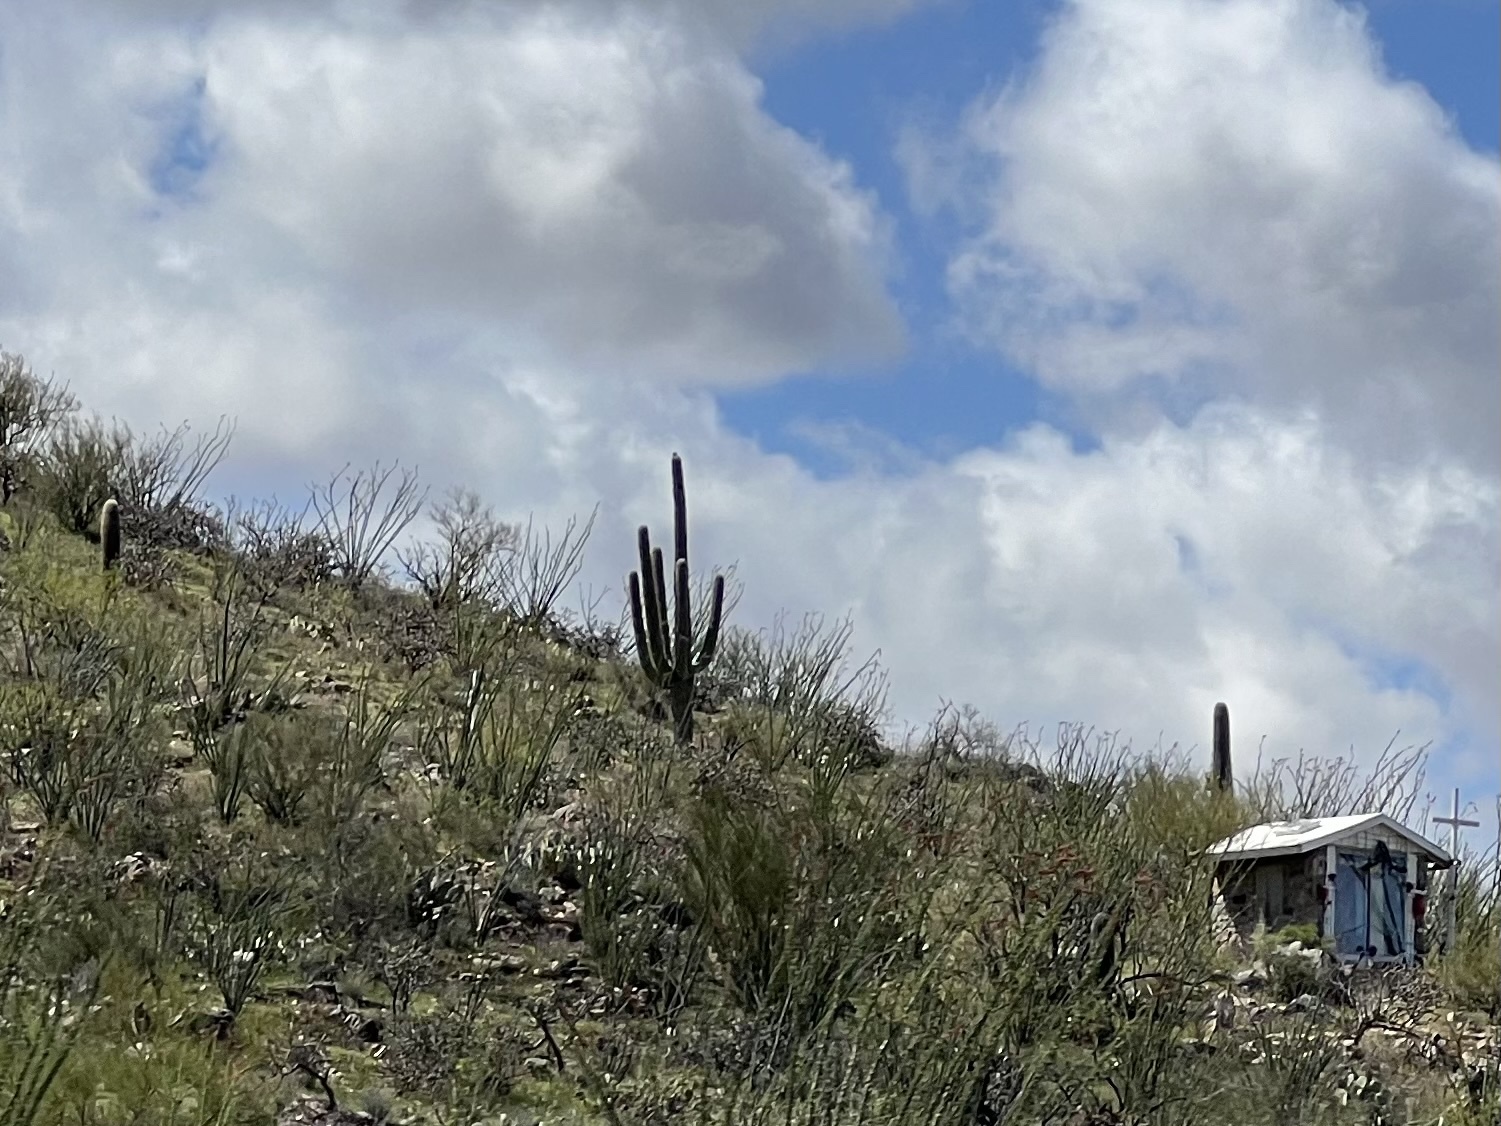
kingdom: Plantae
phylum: Tracheophyta
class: Magnoliopsida
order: Caryophyllales
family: Cactaceae
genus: Carnegiea
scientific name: Carnegiea gigantea
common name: Saguaro
